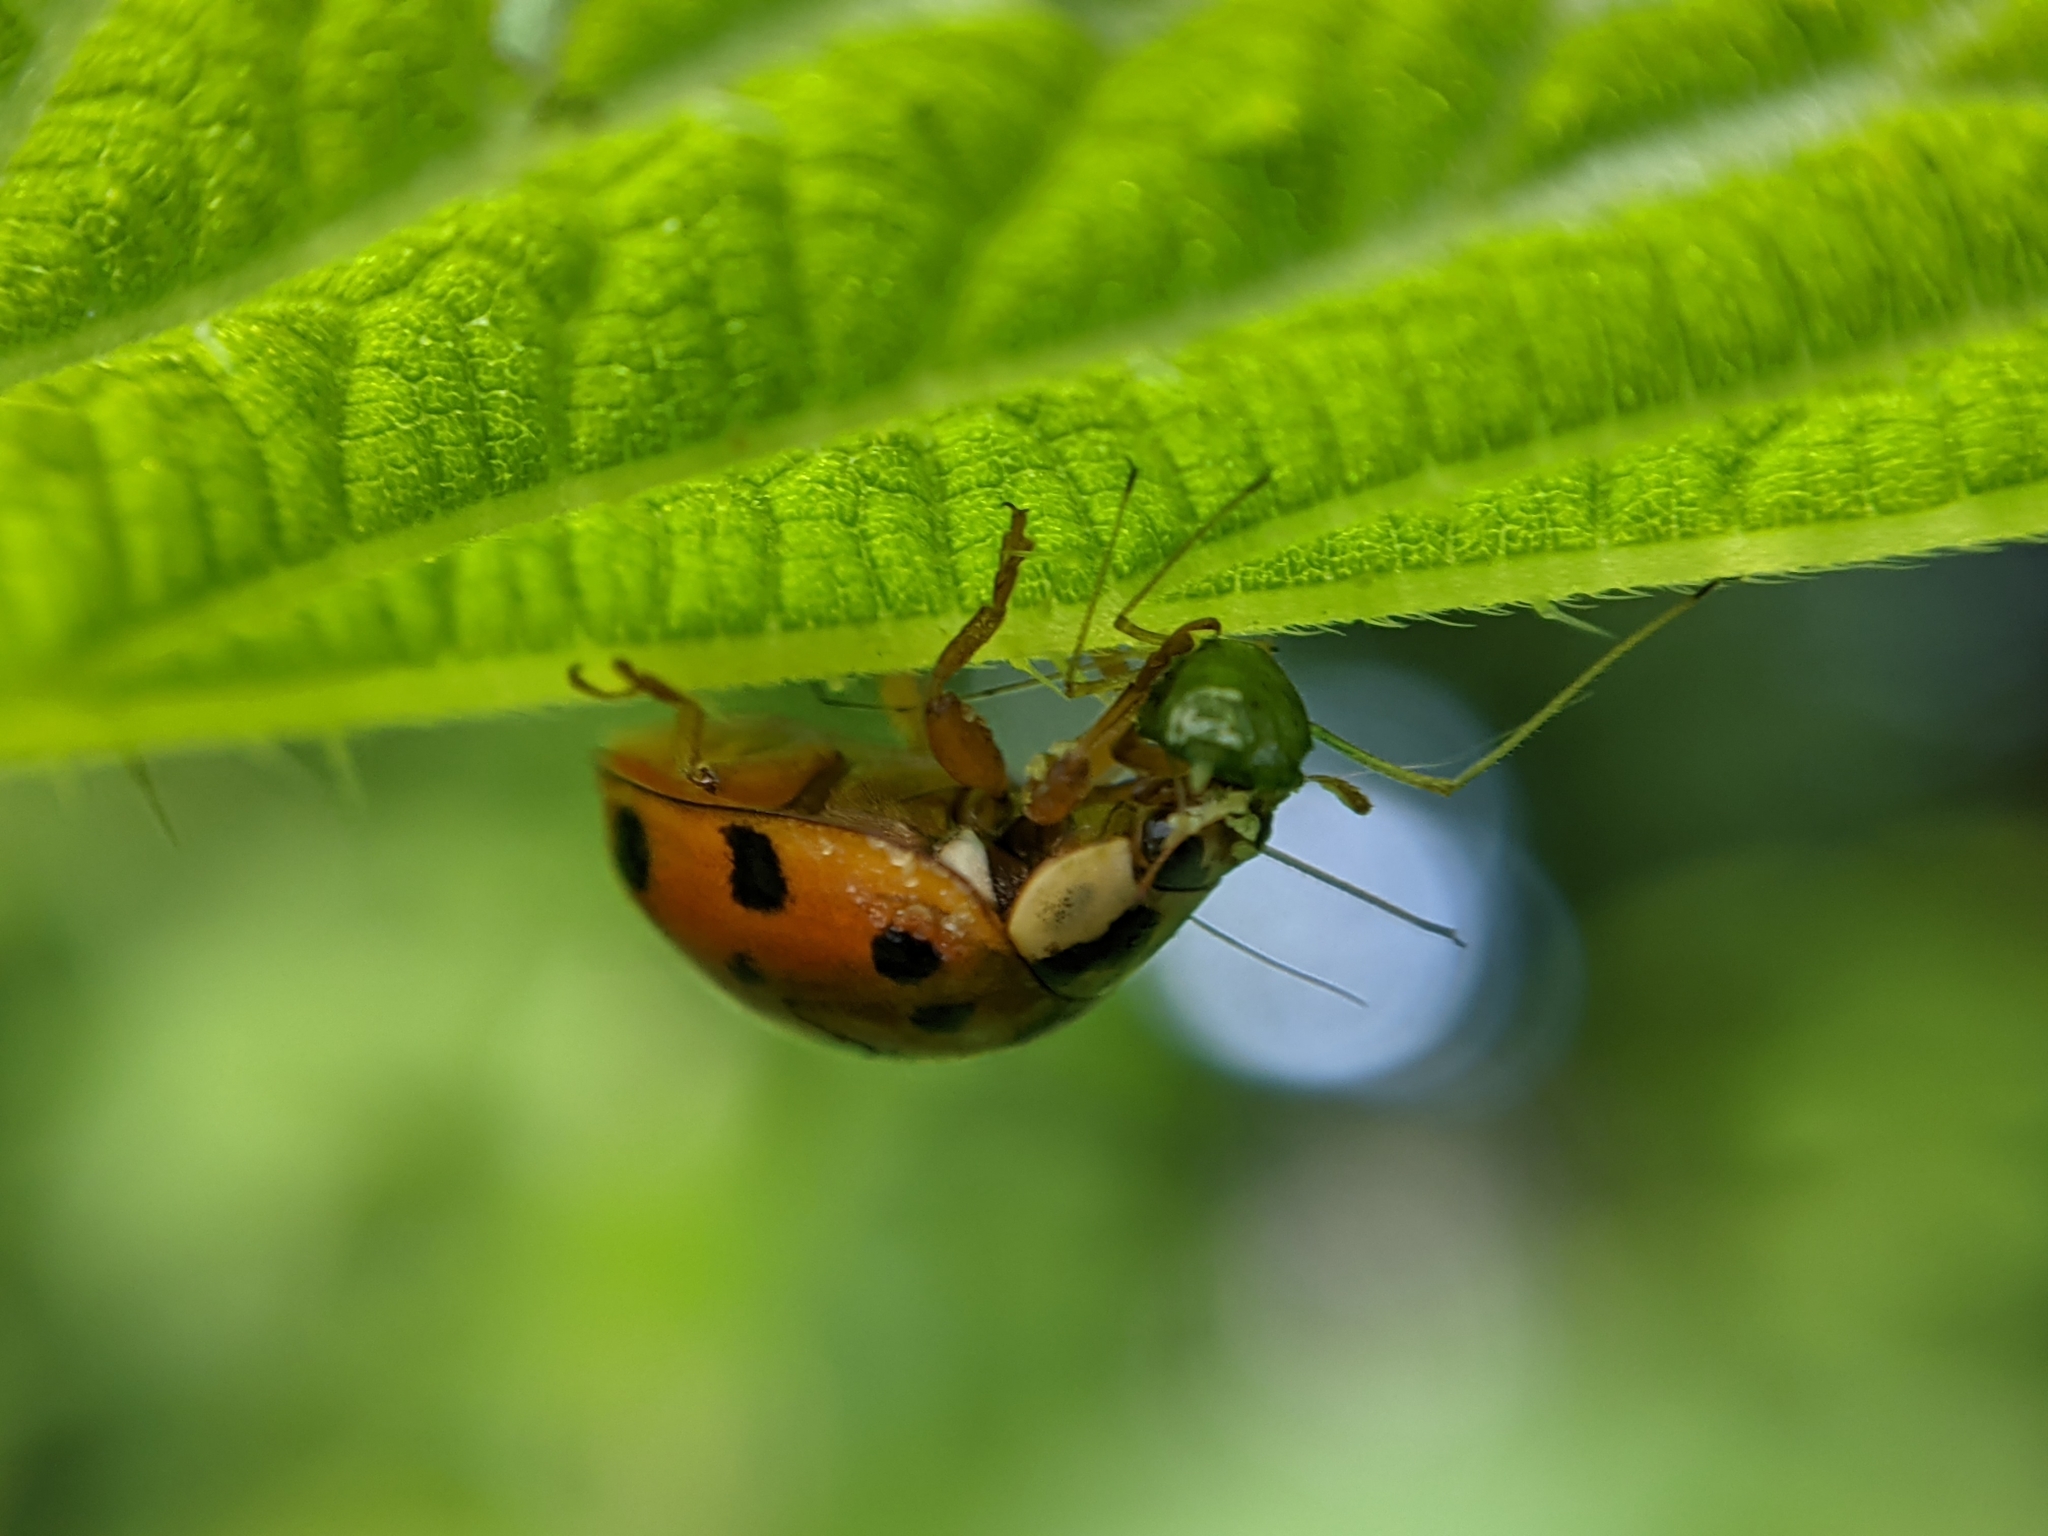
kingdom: Animalia
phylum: Arthropoda
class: Insecta
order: Coleoptera
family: Coccinellidae
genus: Harmonia
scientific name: Harmonia axyridis
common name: Harlequin ladybird
